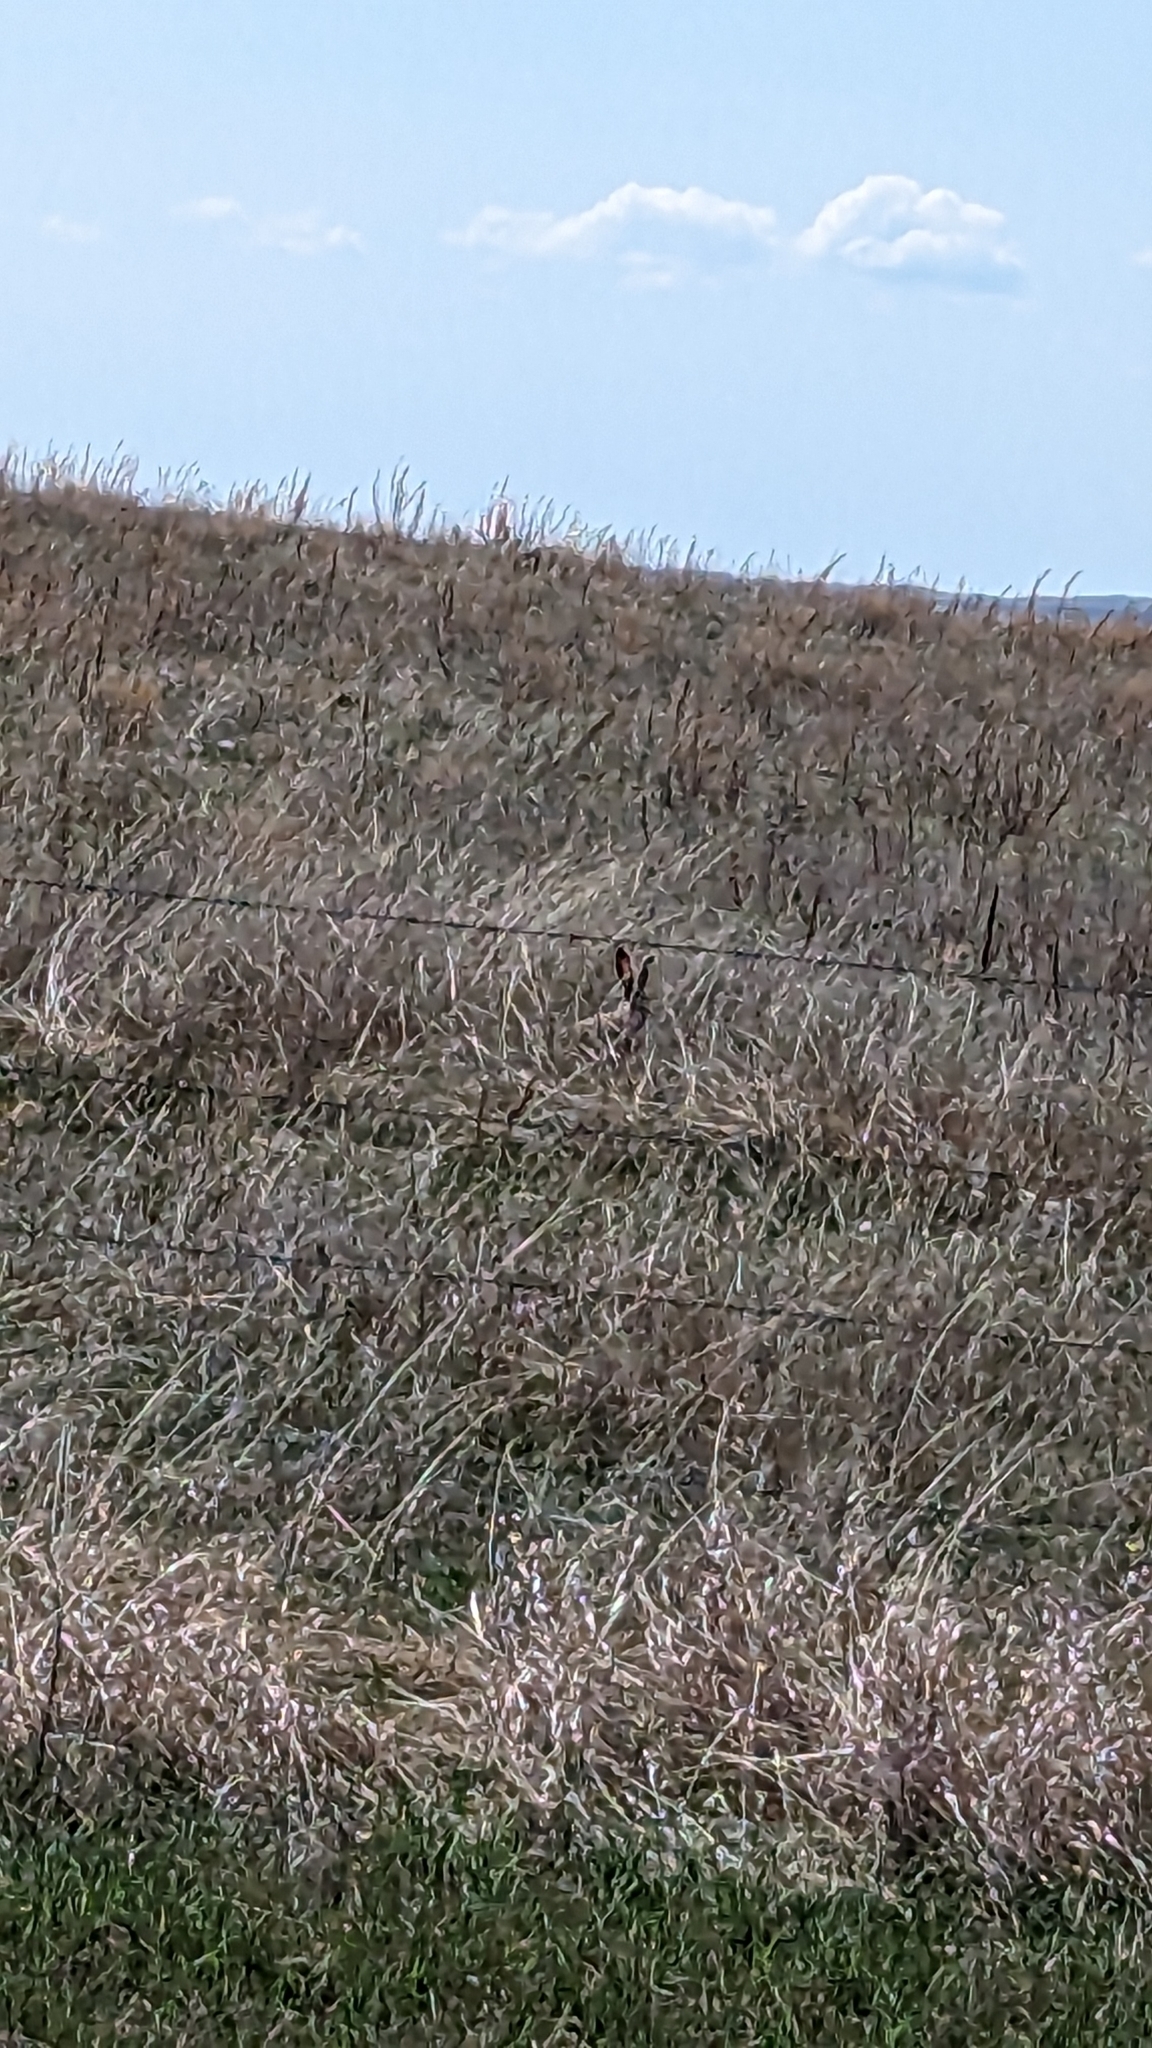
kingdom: Animalia
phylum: Chordata
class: Mammalia
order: Lagomorpha
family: Leporidae
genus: Lepus
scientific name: Lepus townsendii
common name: White-tailed jackrabbit
